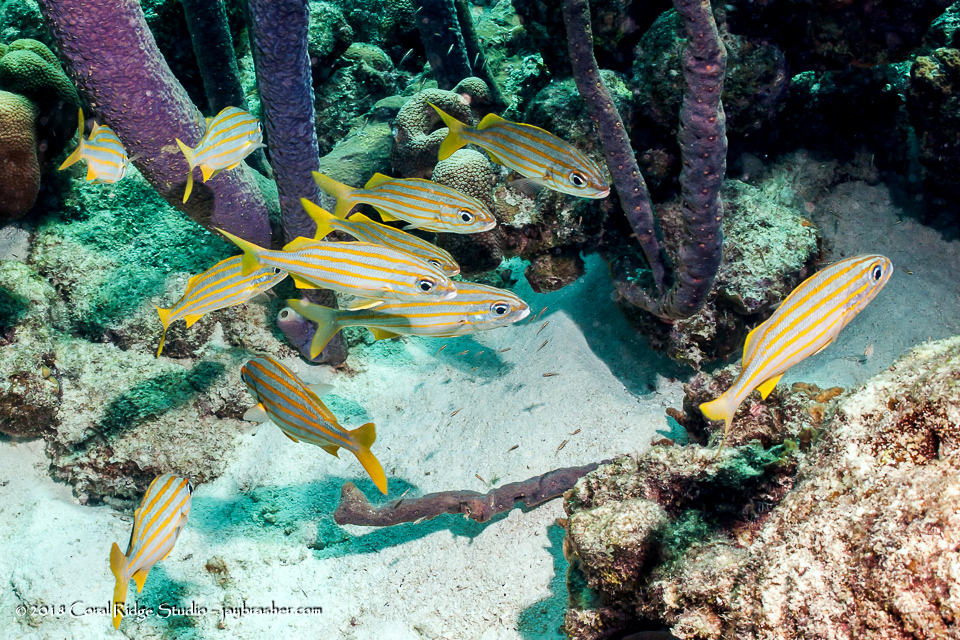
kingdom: Animalia
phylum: Chordata
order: Perciformes
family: Haemulidae
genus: Haemulon
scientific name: Haemulon chrysargyreum
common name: Smallmouth grunt
